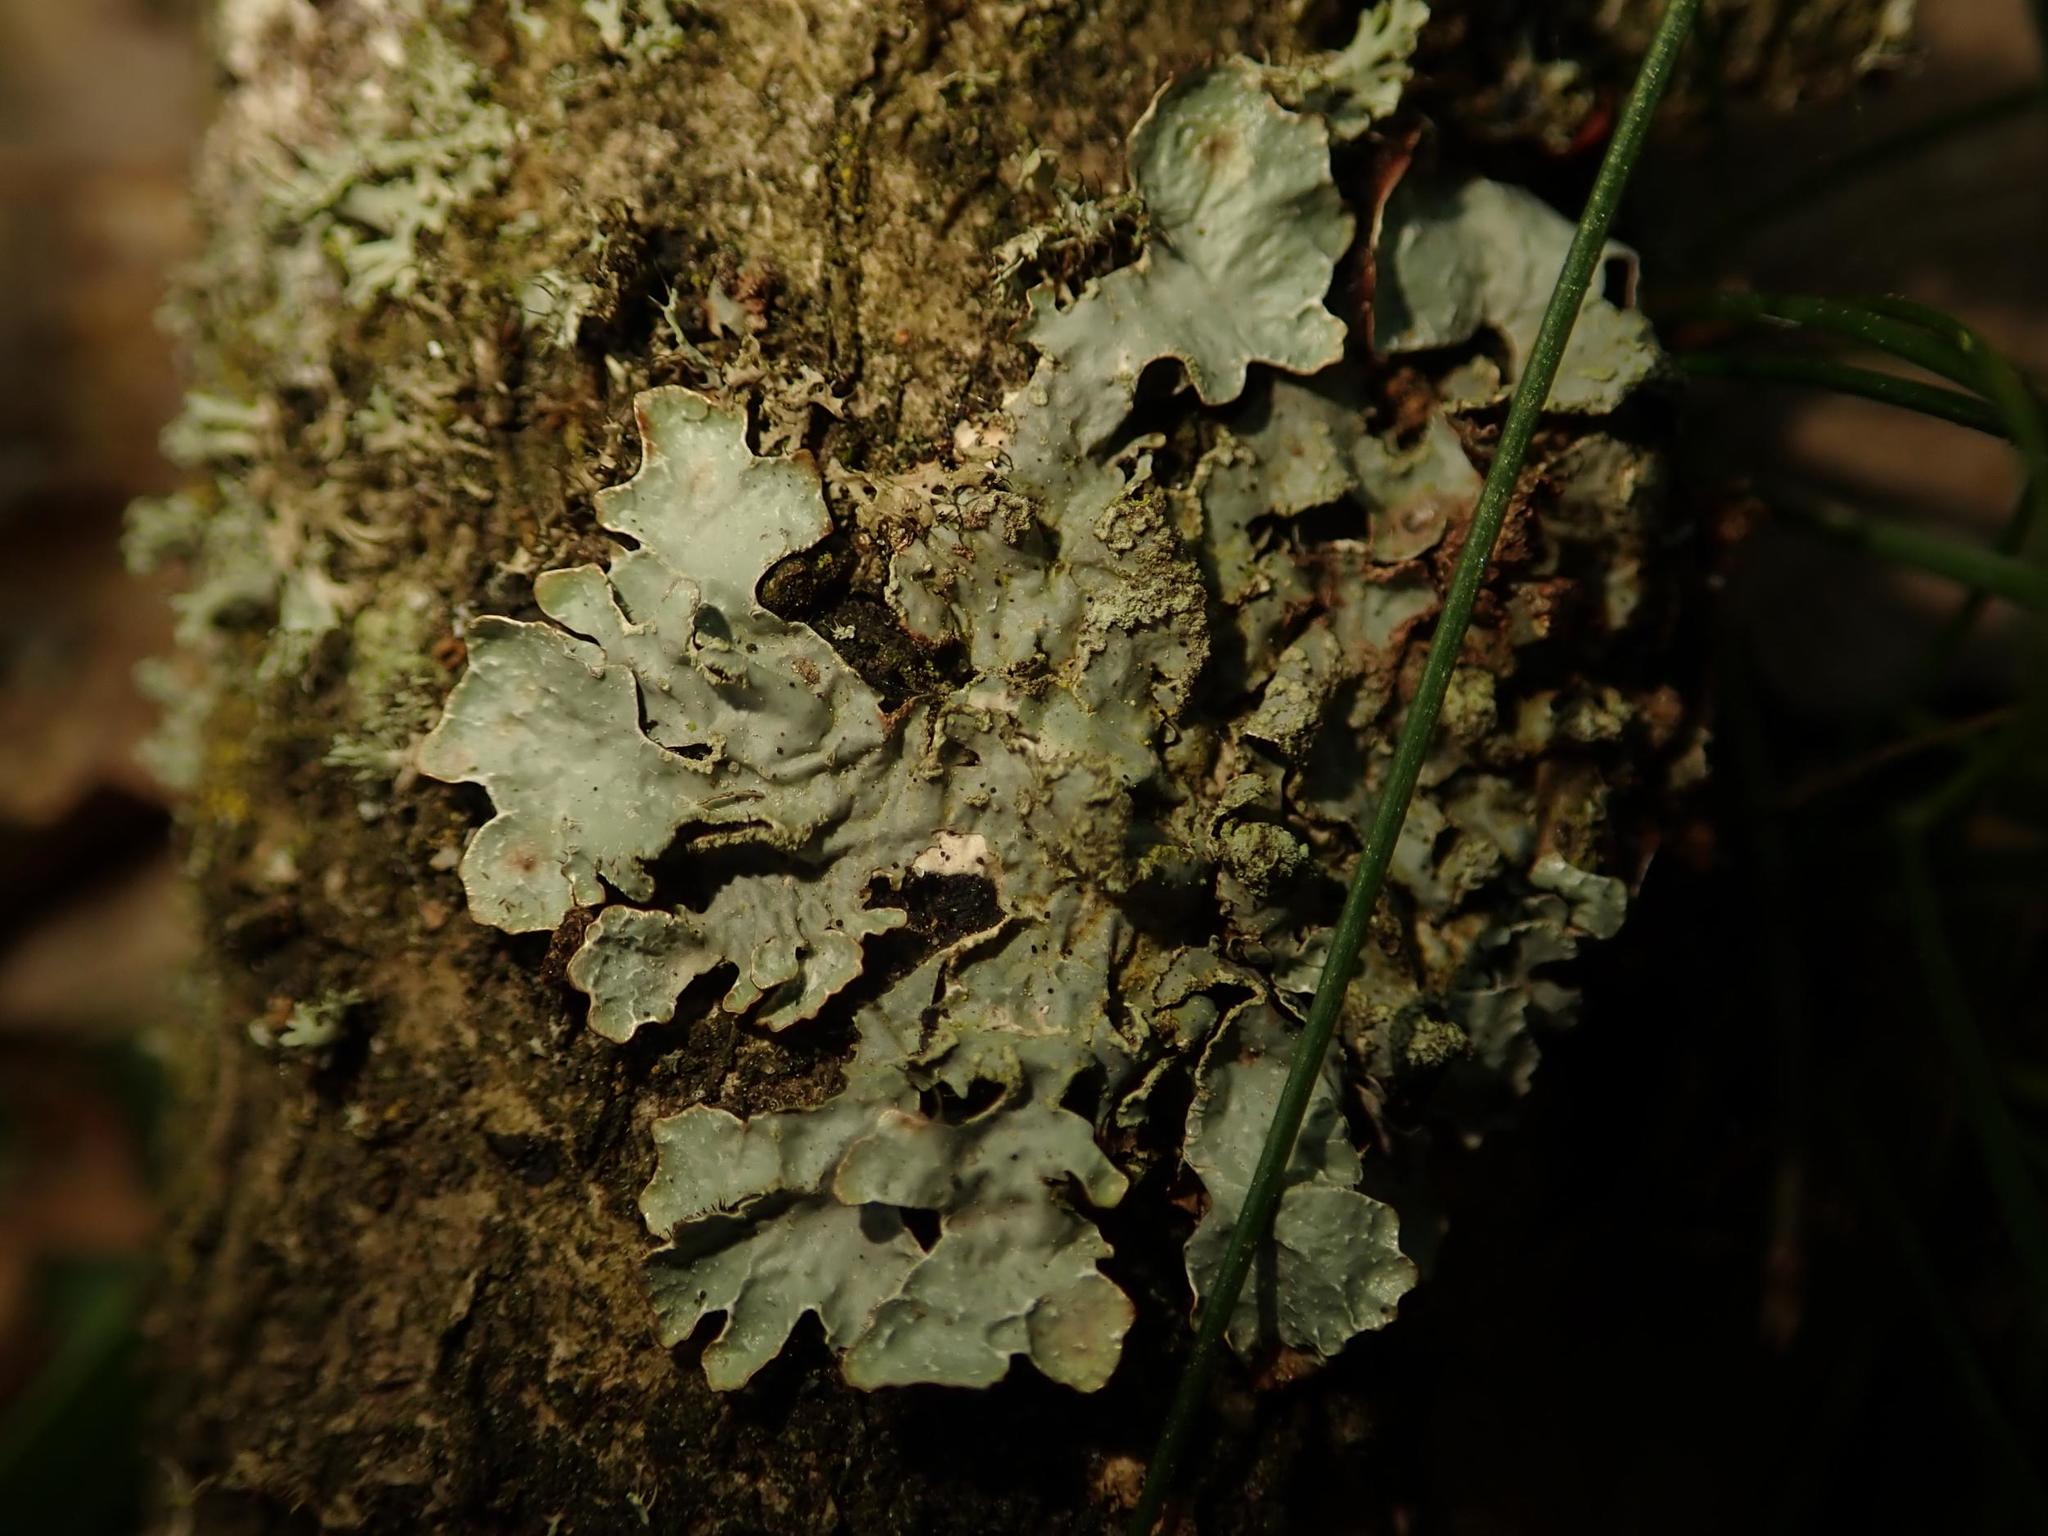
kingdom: Fungi
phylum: Ascomycota
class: Lecanoromycetes
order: Lecanorales
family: Parmeliaceae
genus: Parmelia
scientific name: Parmelia sulcata
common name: Netted shield lichen
